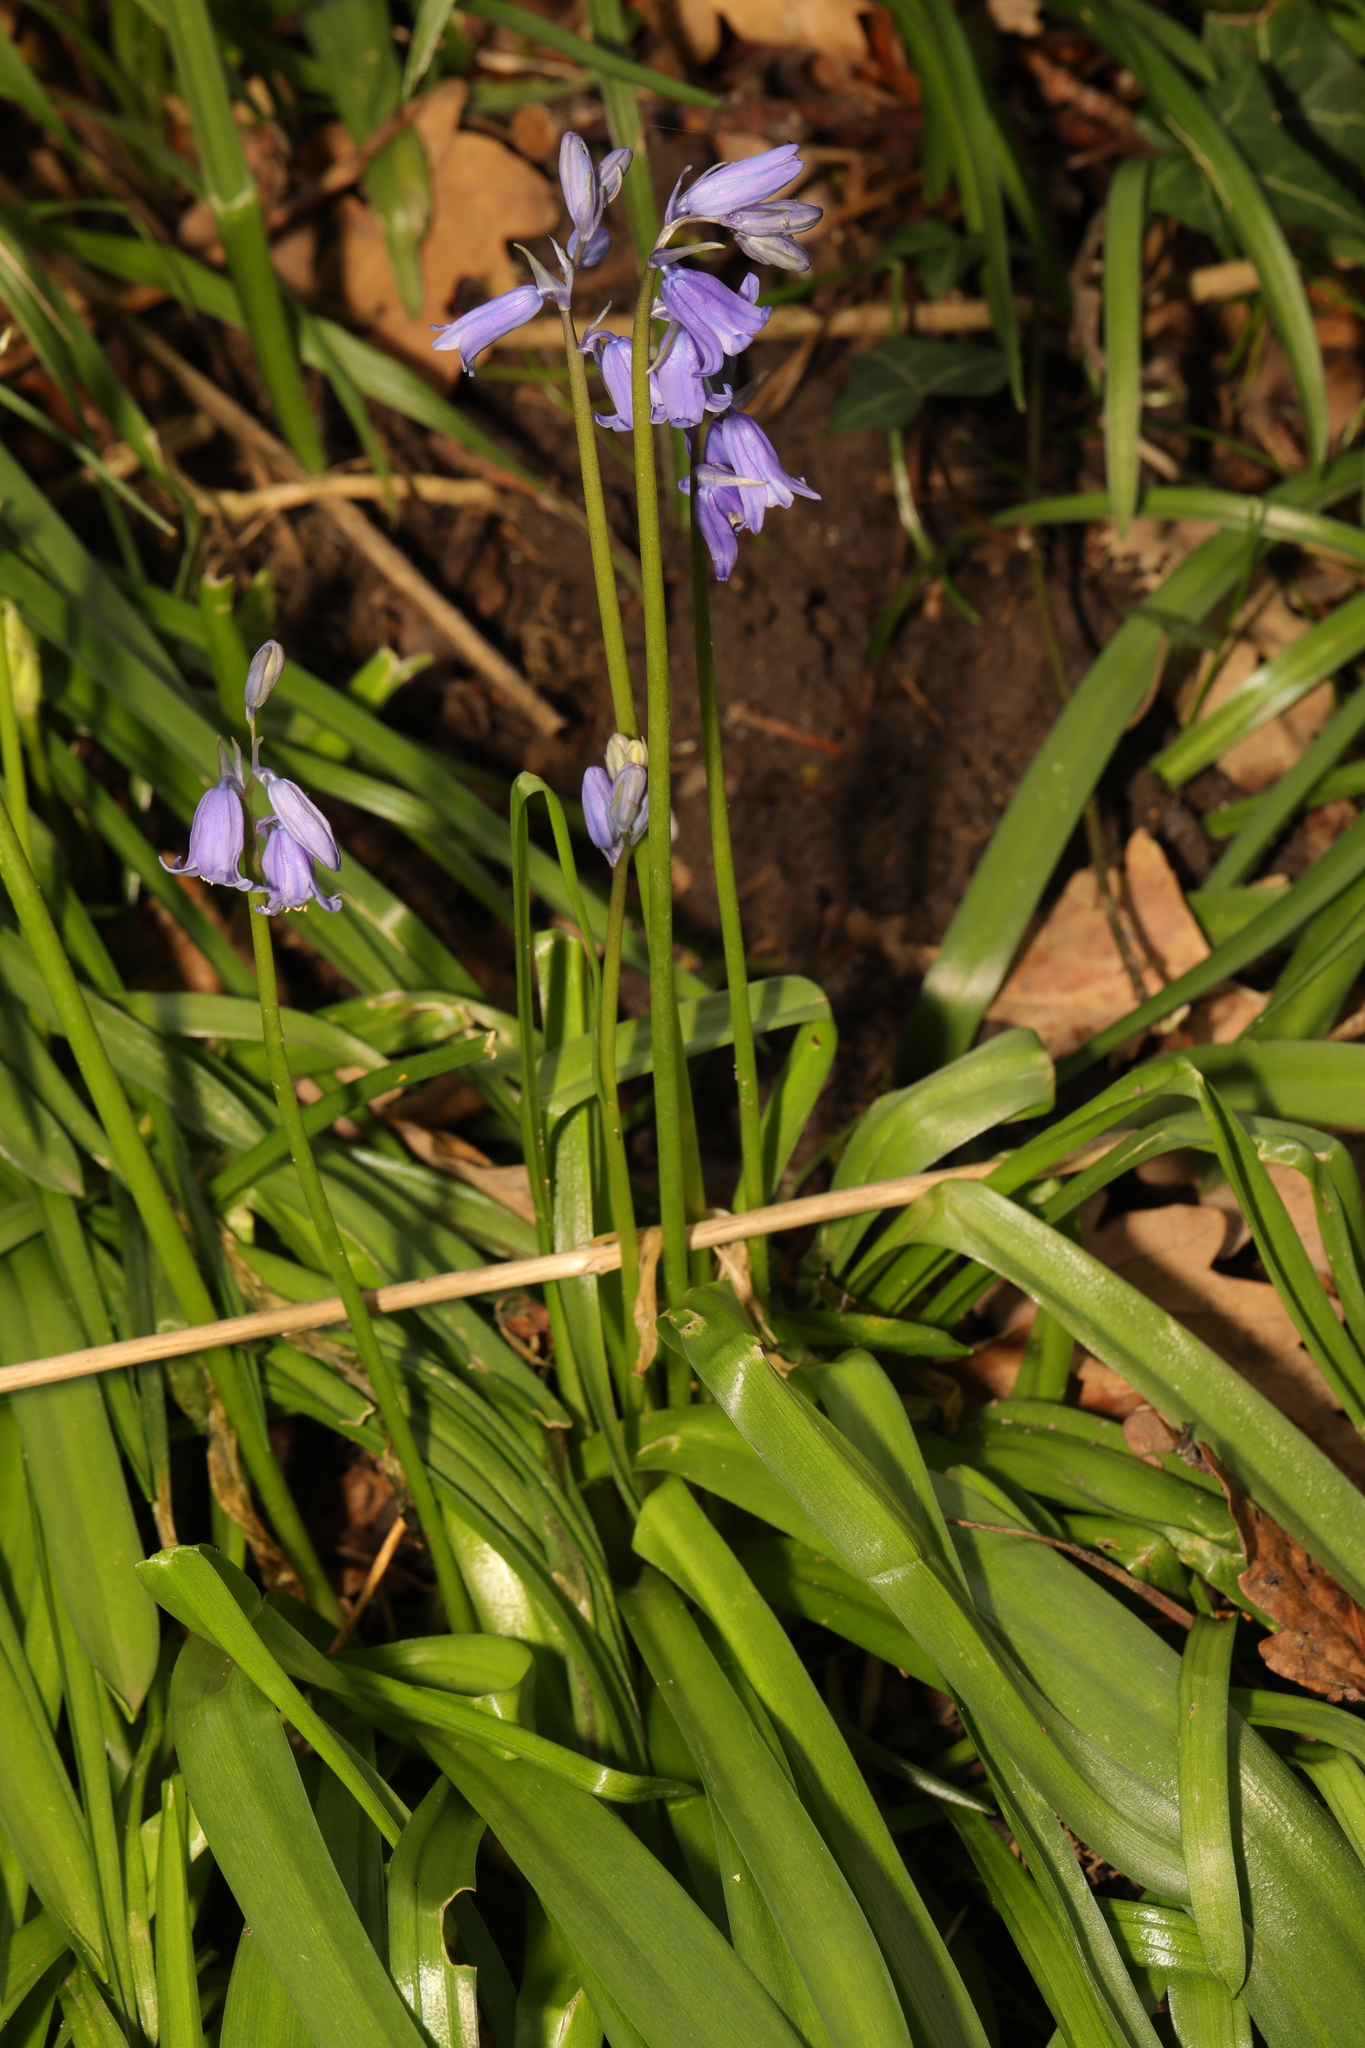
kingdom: Plantae
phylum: Tracheophyta
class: Liliopsida
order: Asparagales
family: Asparagaceae
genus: Hyacinthoides
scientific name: Hyacinthoides hispanica
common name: Spanish bluebell
